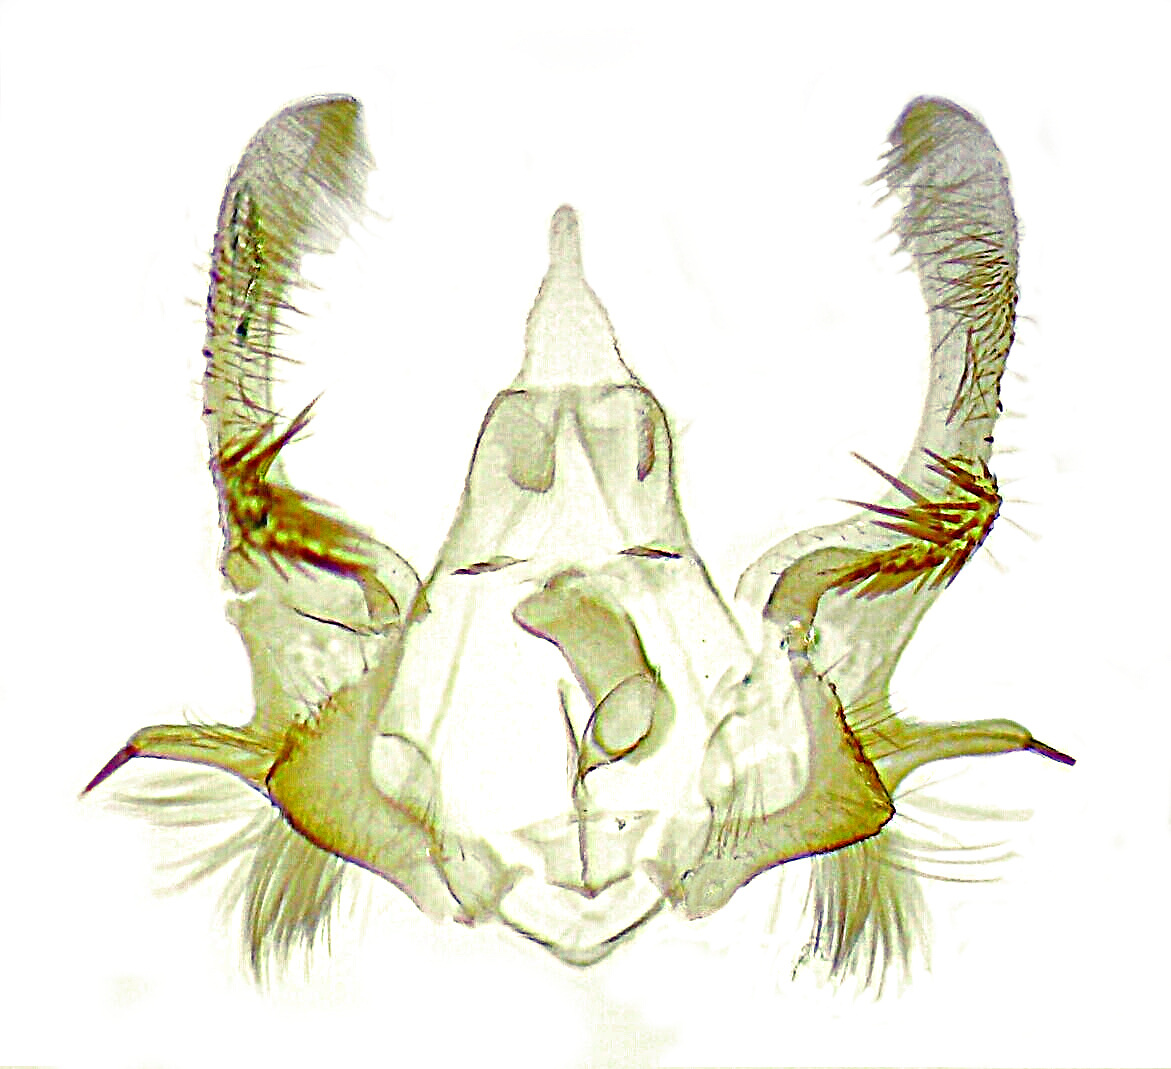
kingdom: Animalia
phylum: Arthropoda
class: Insecta
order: Lepidoptera
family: Tortricidae
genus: Olethreutes
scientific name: Olethreutes furfuranum
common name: Woolly-backed moth
